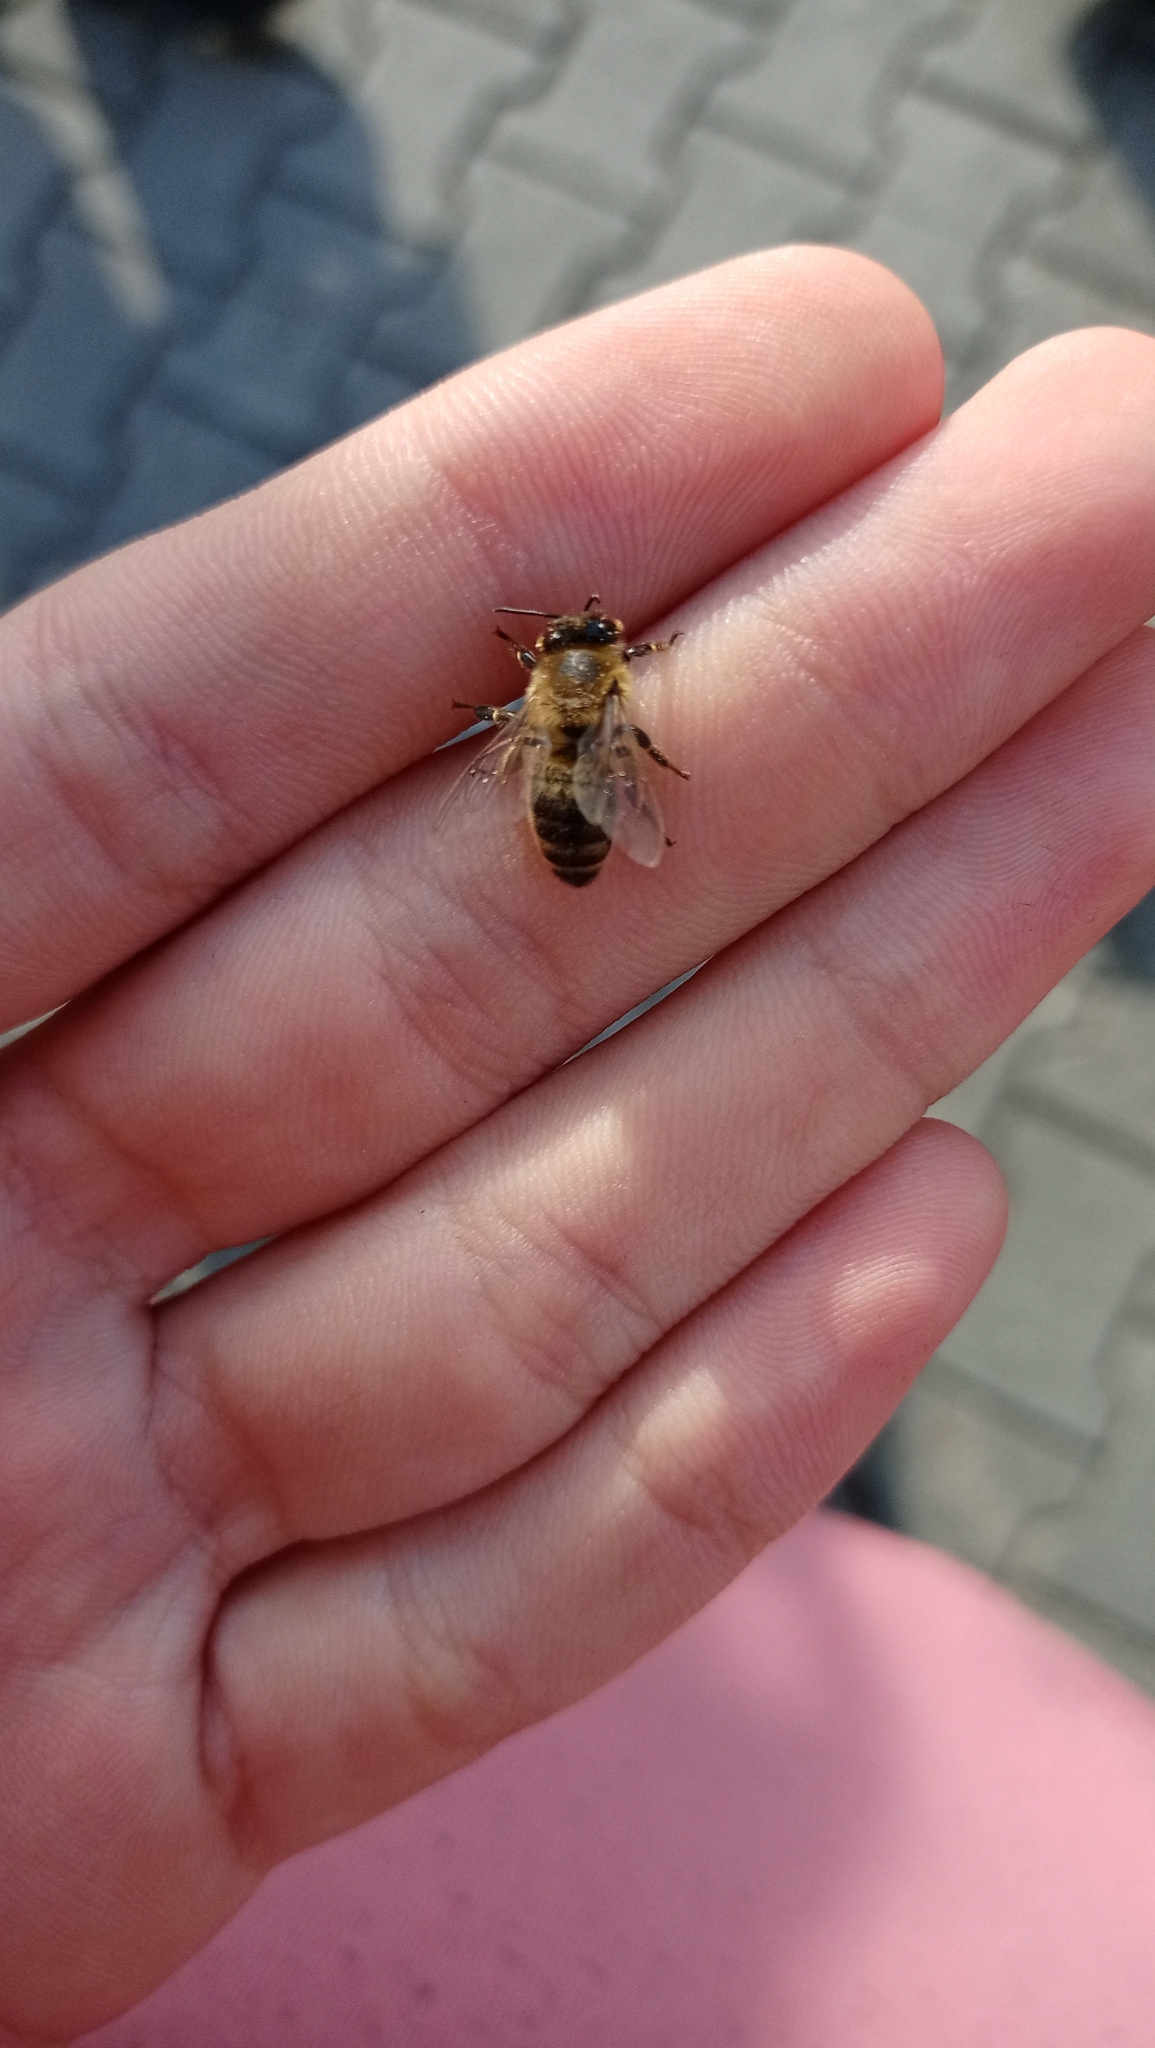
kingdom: Animalia
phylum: Arthropoda
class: Insecta
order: Hymenoptera
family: Apidae
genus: Apis
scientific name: Apis mellifera
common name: Honey bee
